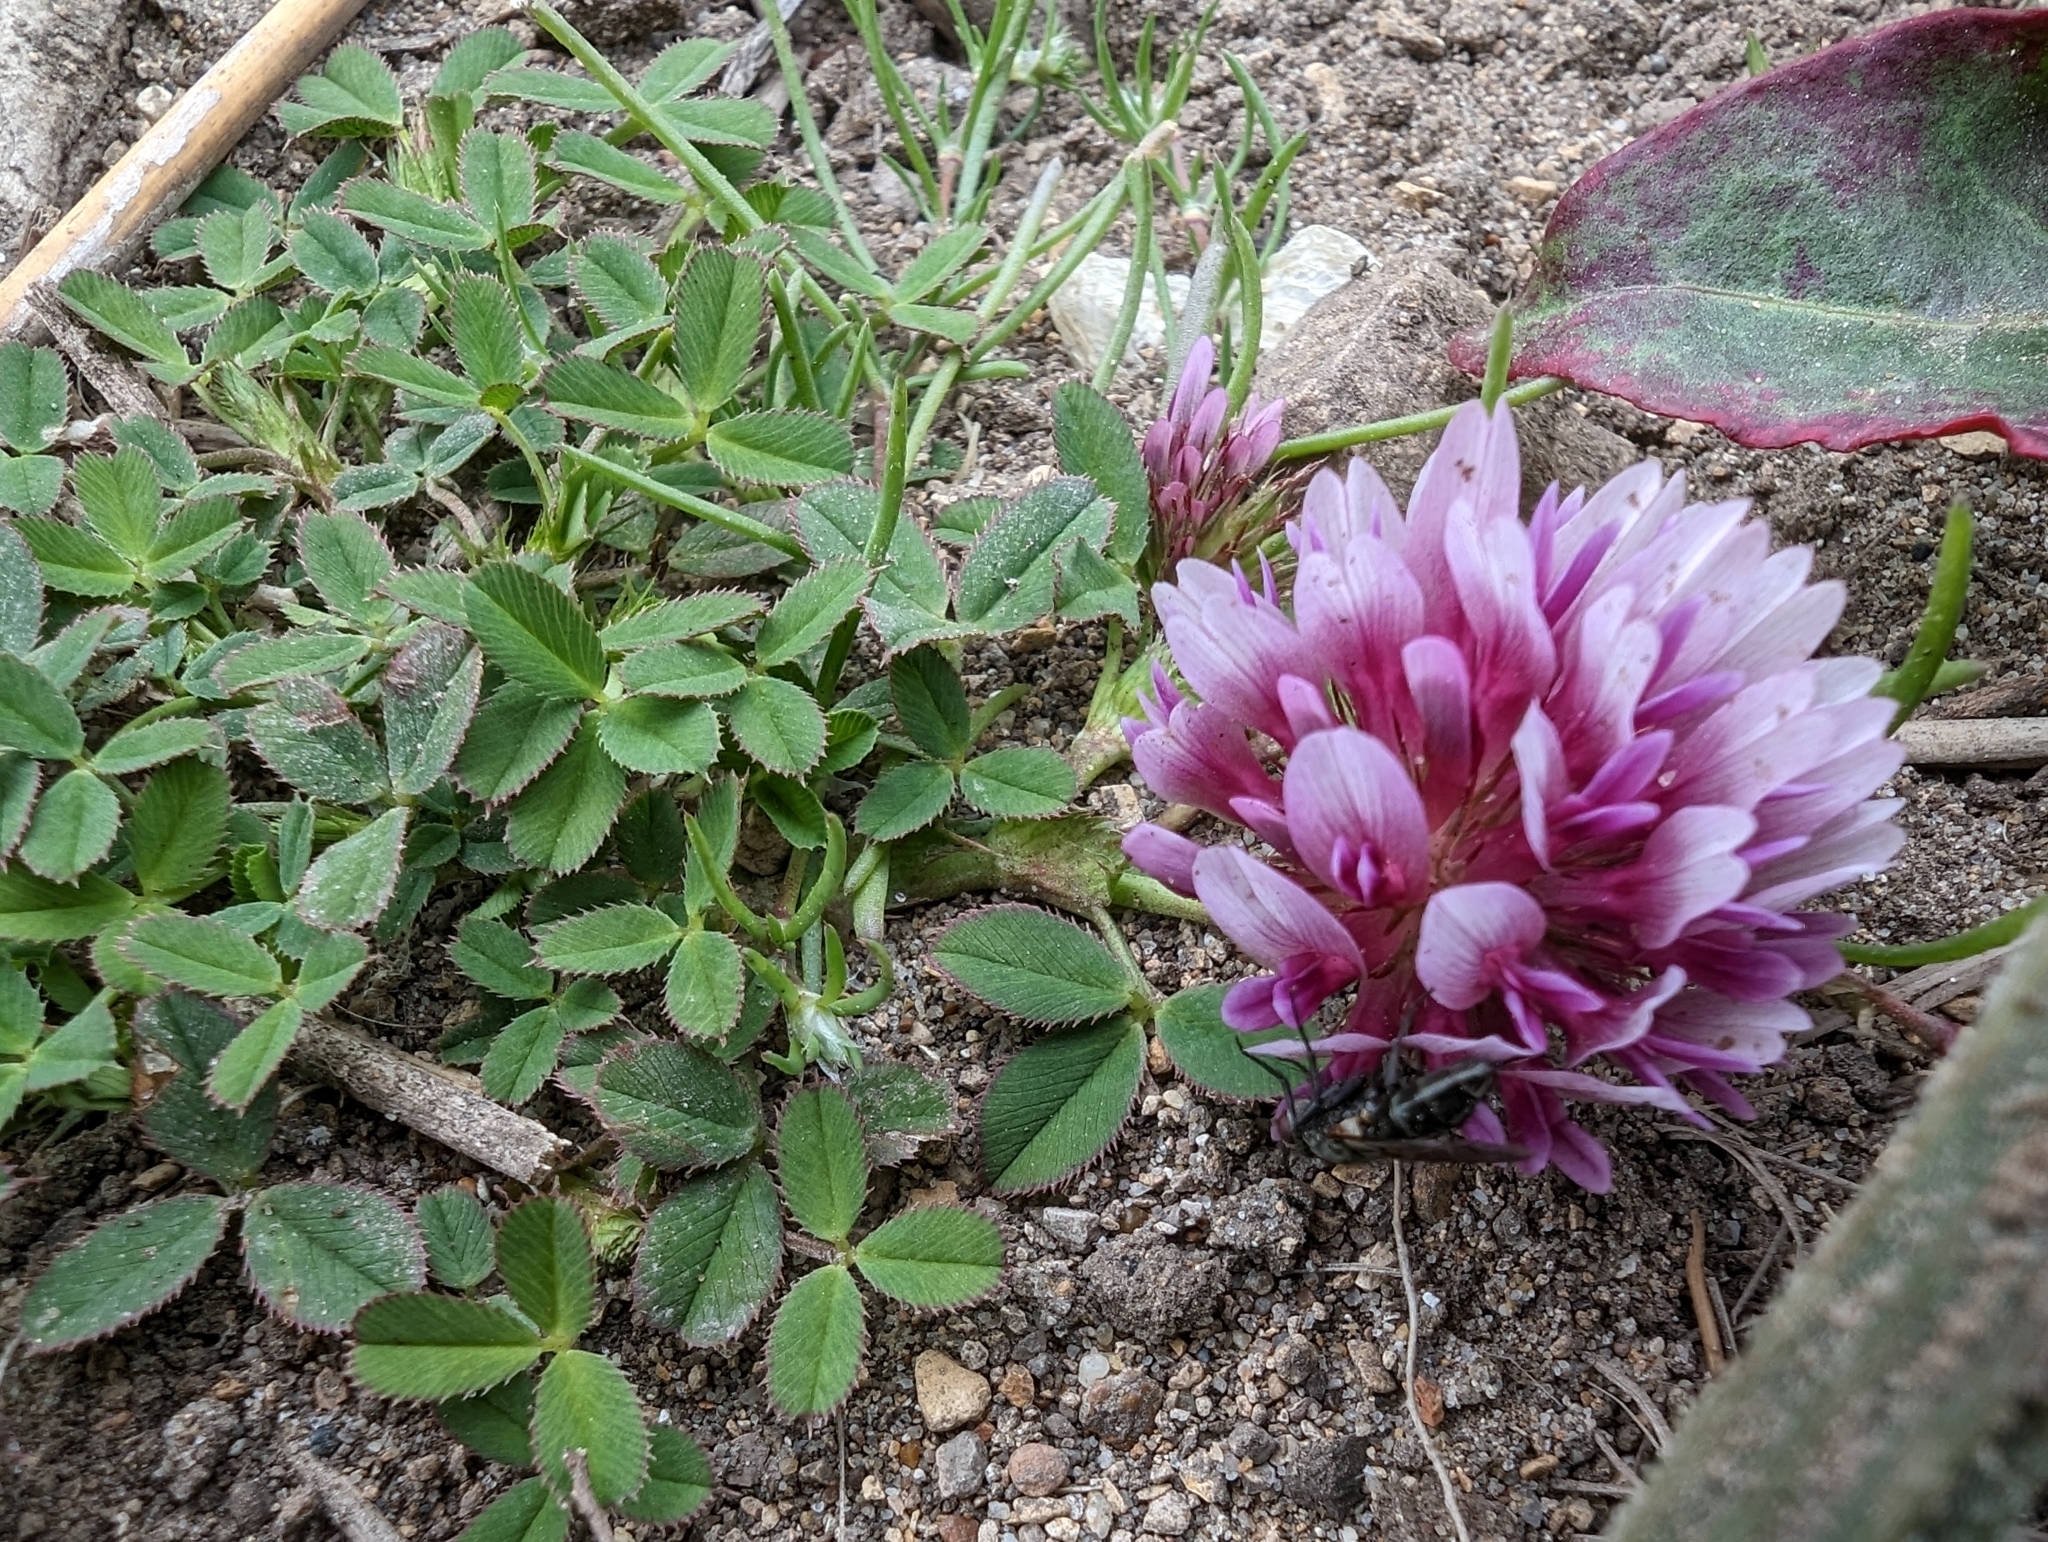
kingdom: Plantae
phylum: Tracheophyta
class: Magnoliopsida
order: Fabales
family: Fabaceae
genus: Trifolium
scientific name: Trifolium wormskioldii
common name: Springbank clover
